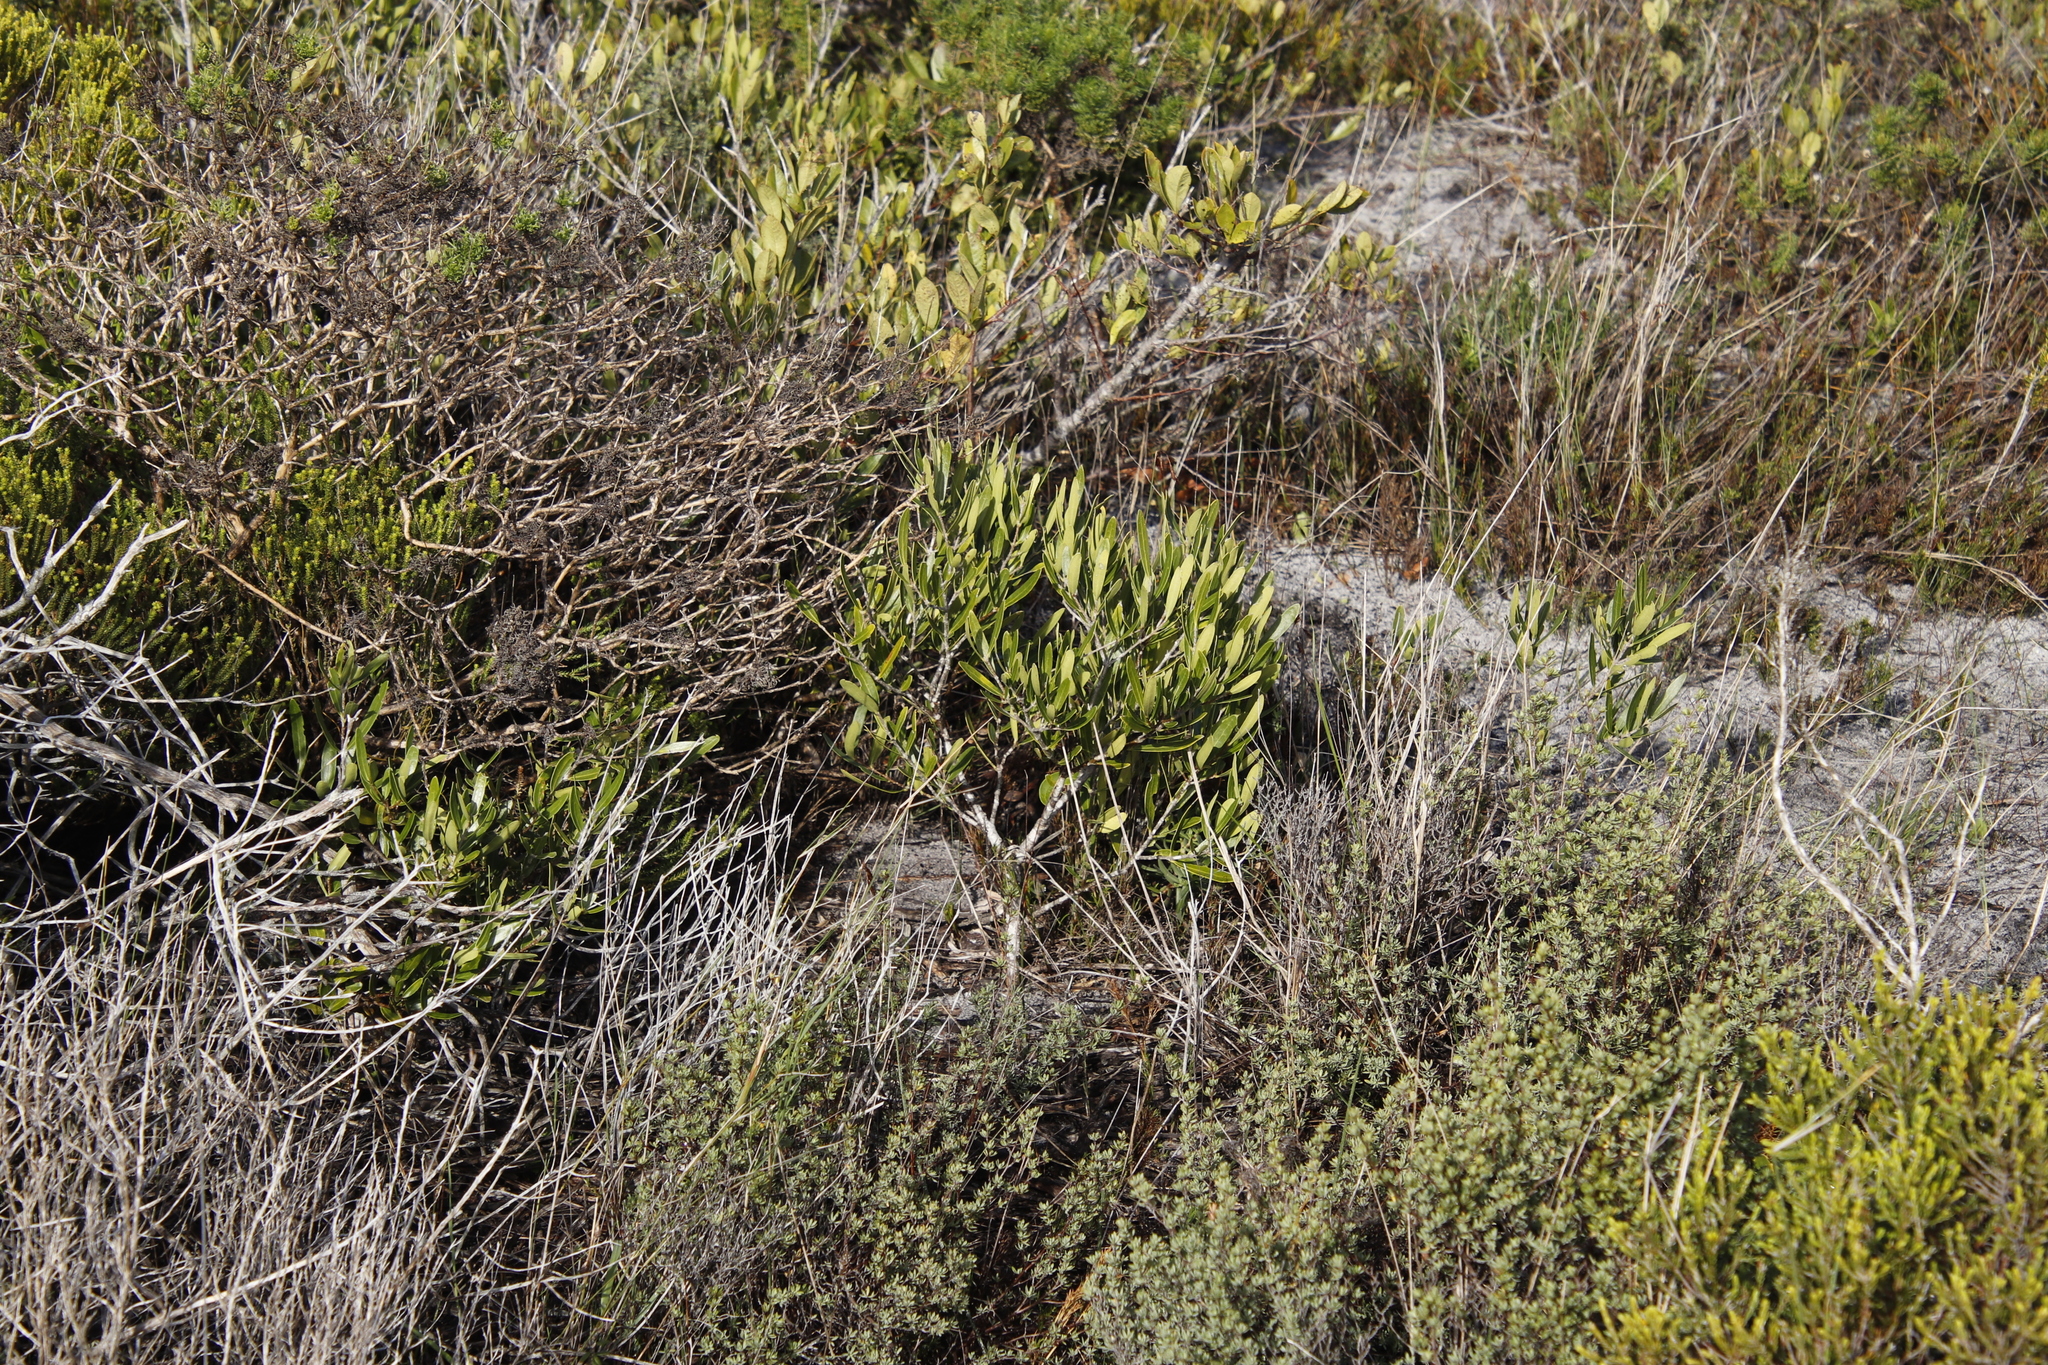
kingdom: Plantae
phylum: Tracheophyta
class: Magnoliopsida
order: Lamiales
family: Oleaceae
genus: Olea
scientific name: Olea exasperata
